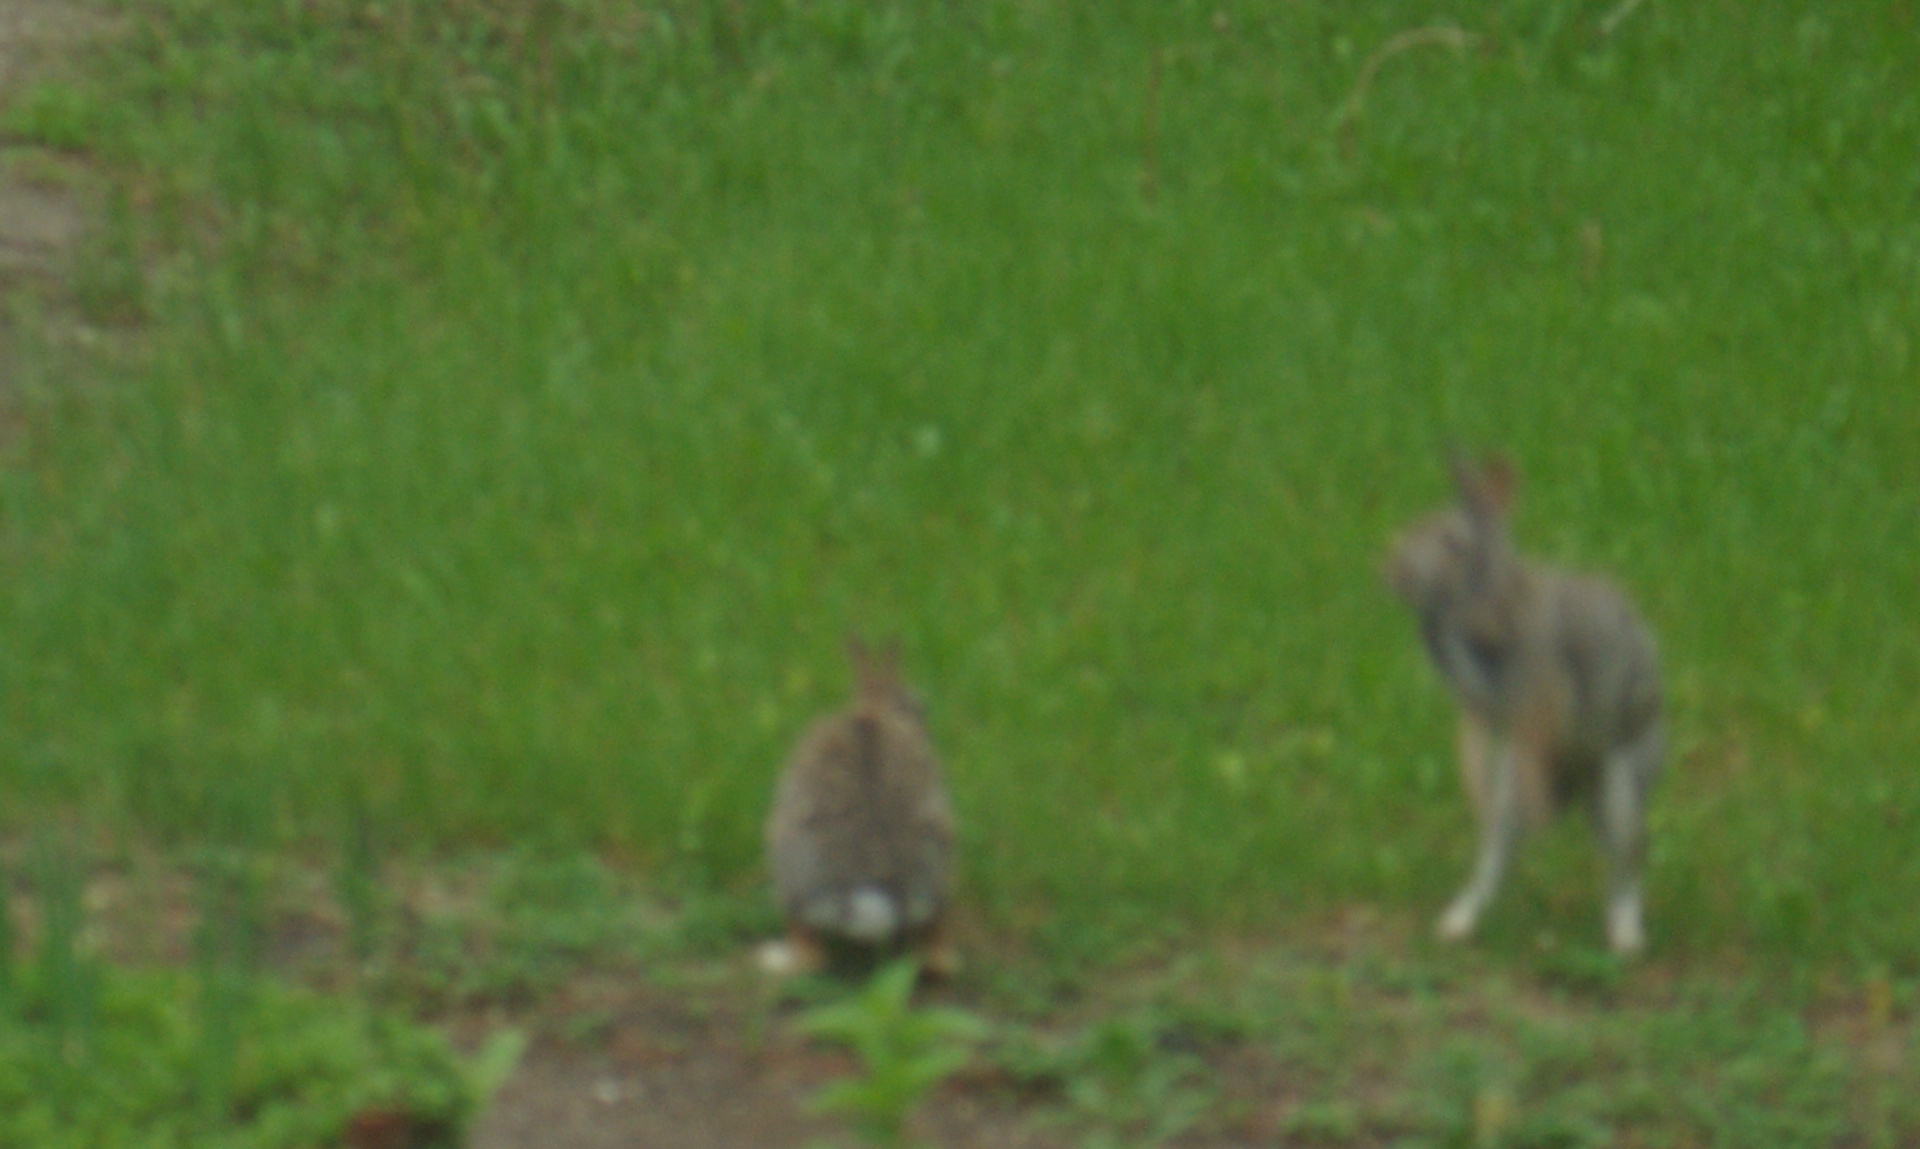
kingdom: Animalia
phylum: Chordata
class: Mammalia
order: Lagomorpha
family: Leporidae
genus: Sylvilagus
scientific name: Sylvilagus floridanus
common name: Eastern cottontail
